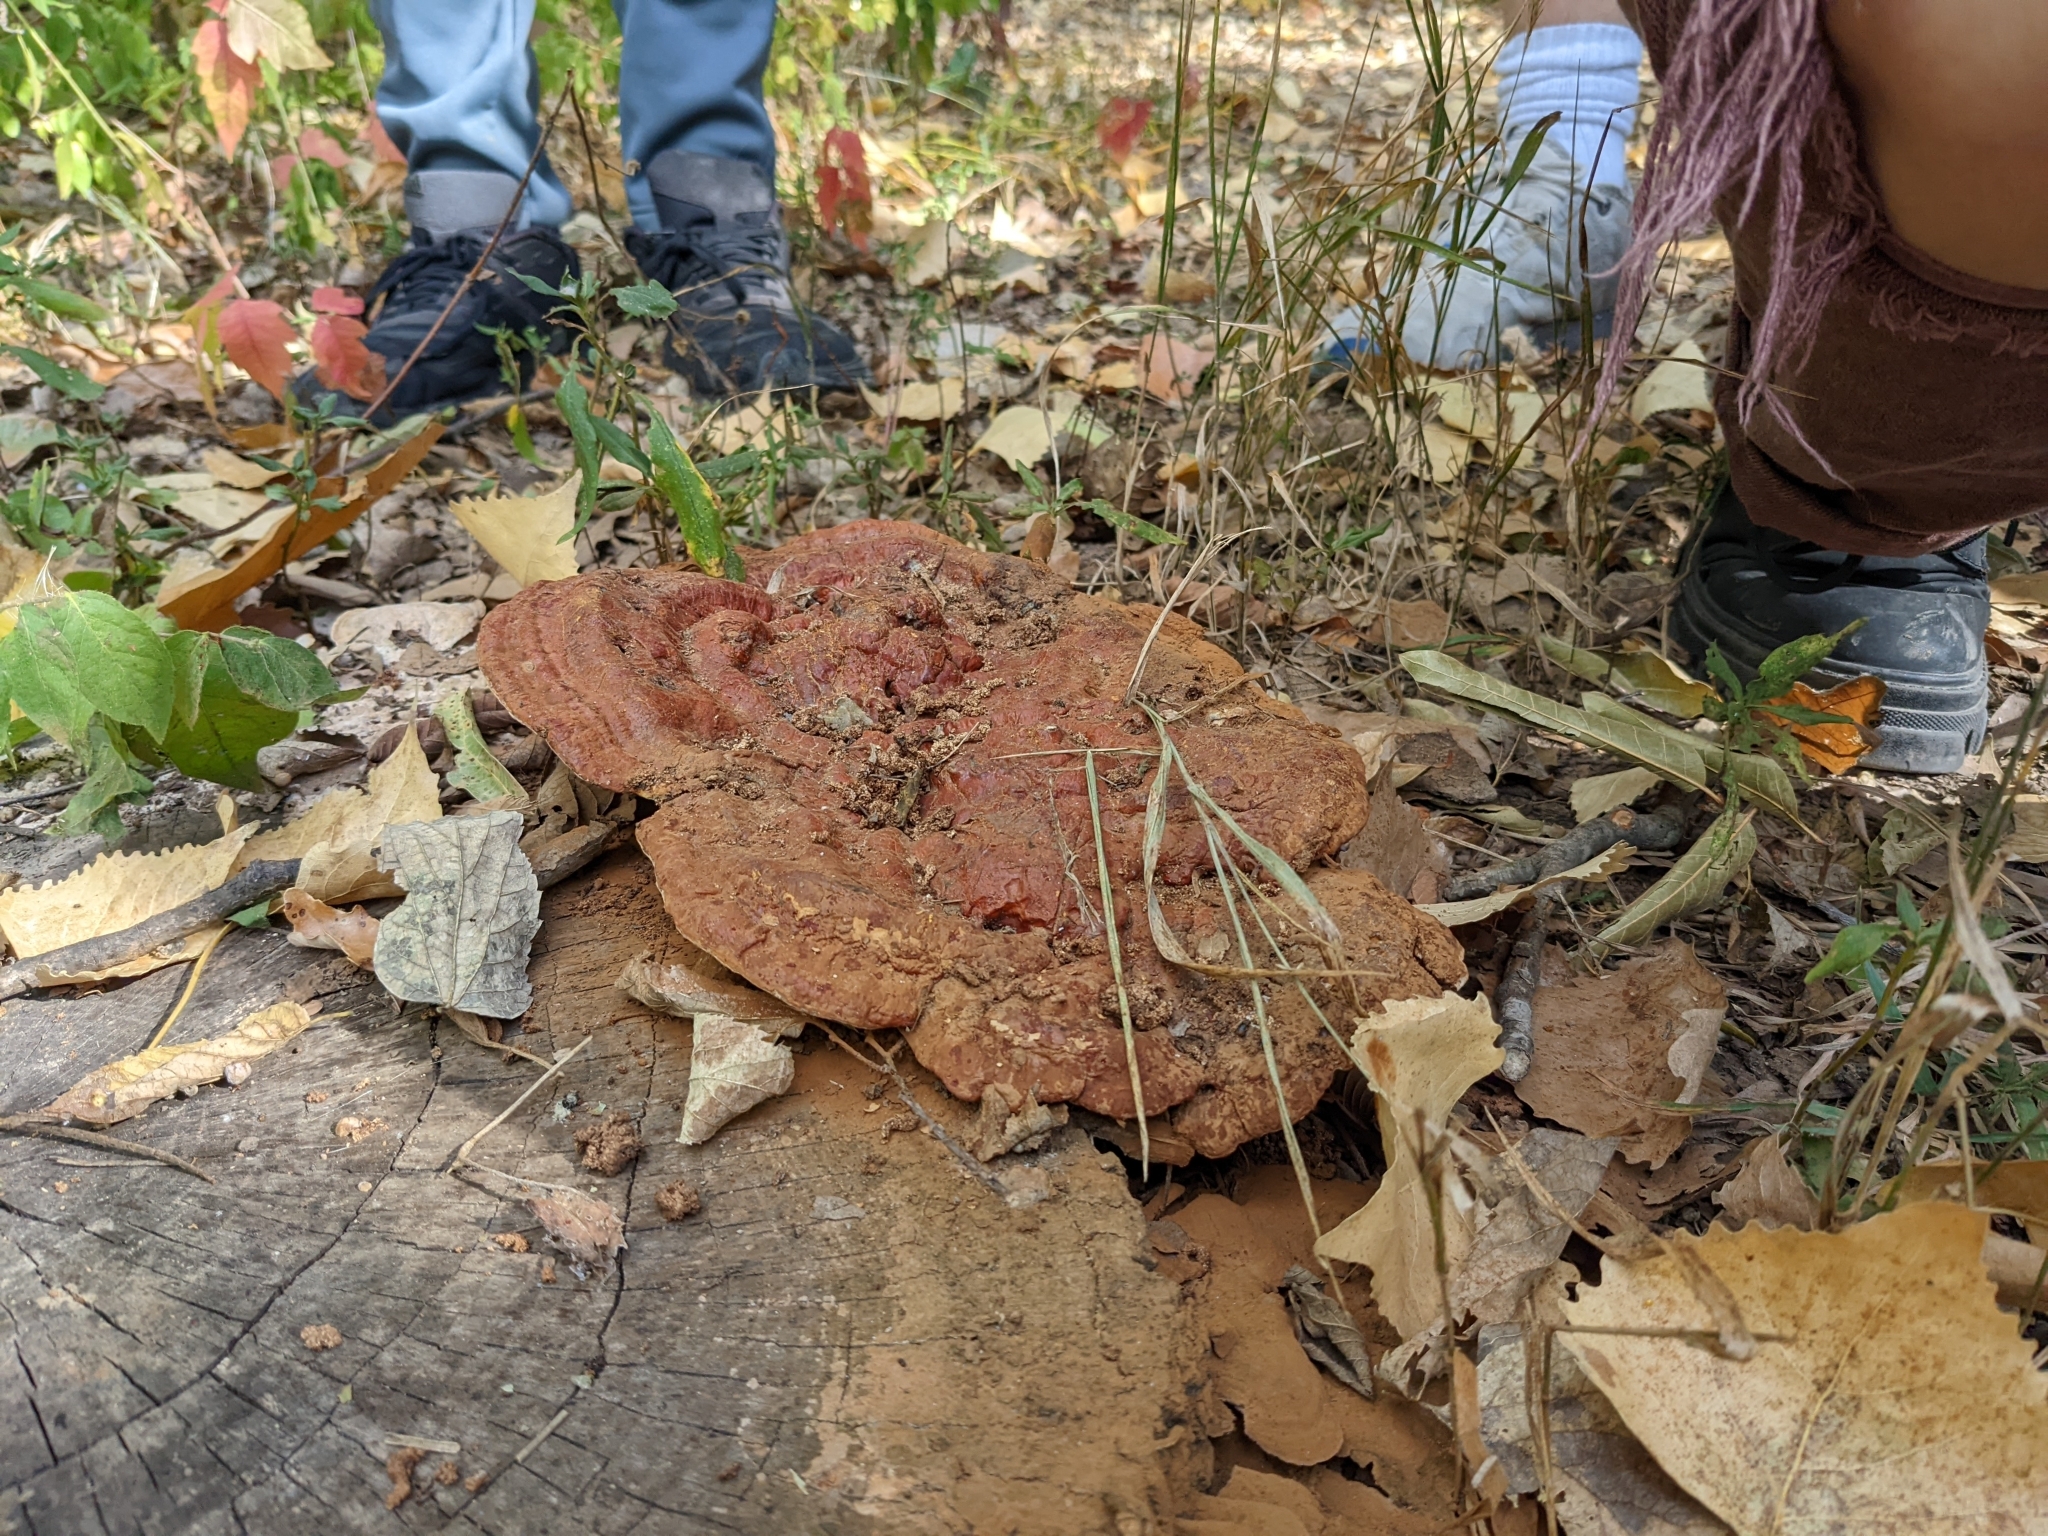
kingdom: Fungi
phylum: Basidiomycota
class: Agaricomycetes
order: Polyporales
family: Polyporaceae
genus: Ganoderma
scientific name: Ganoderma resinaceum
